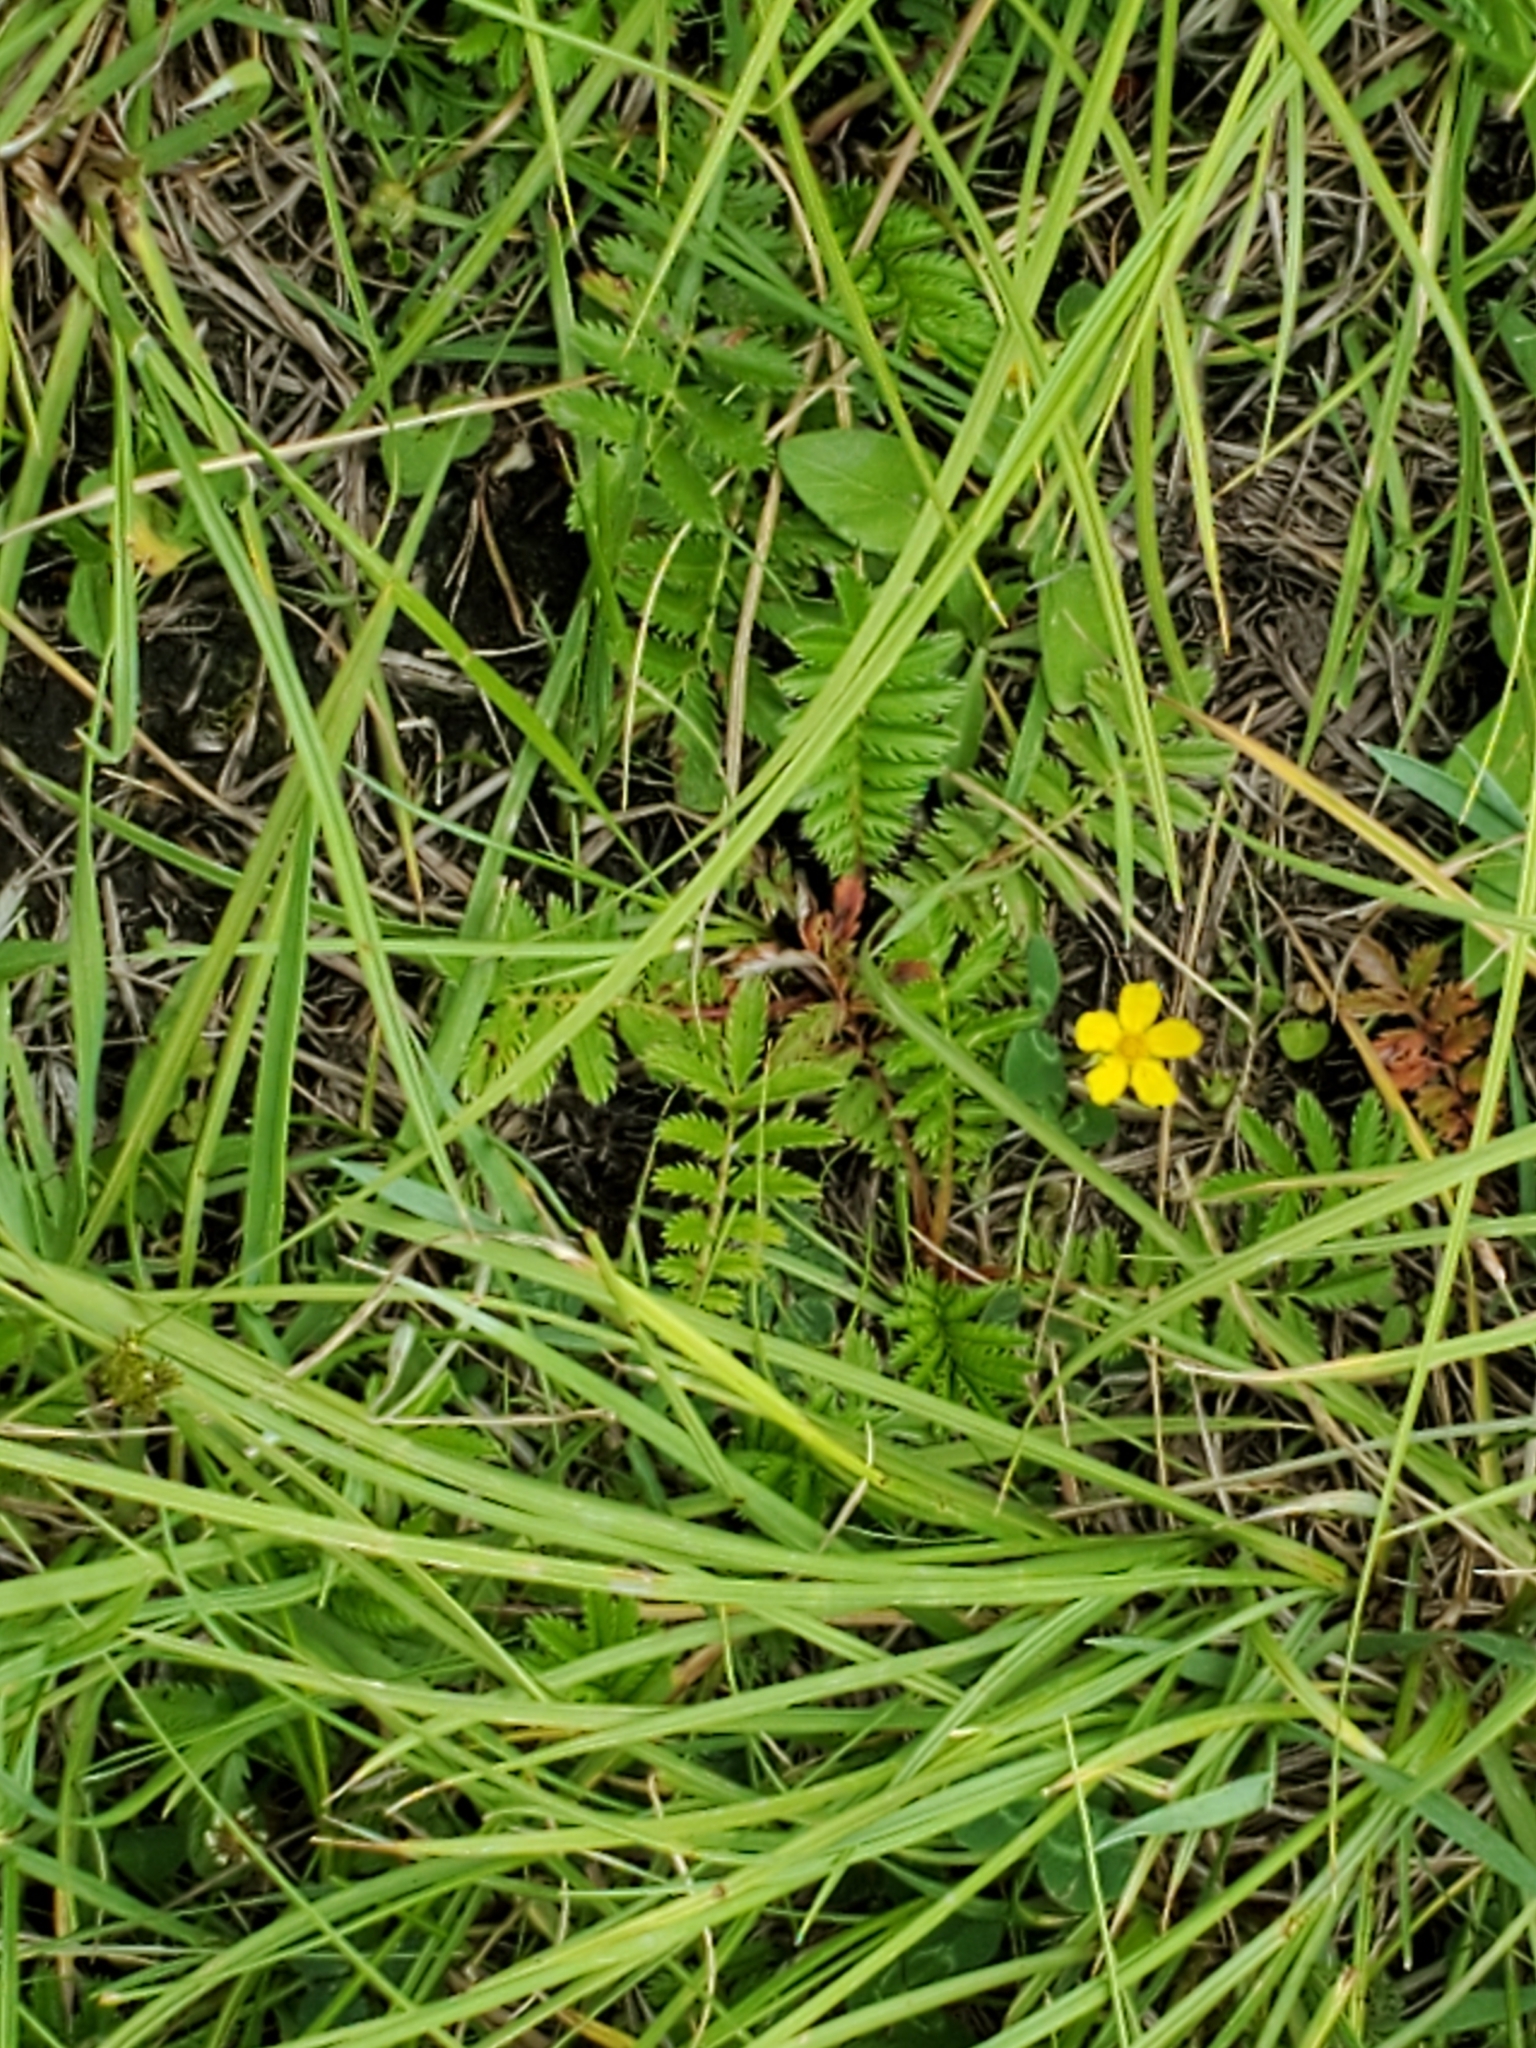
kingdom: Plantae
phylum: Tracheophyta
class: Magnoliopsida
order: Rosales
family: Rosaceae
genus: Argentina
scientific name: Argentina anserina
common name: Common silverweed
